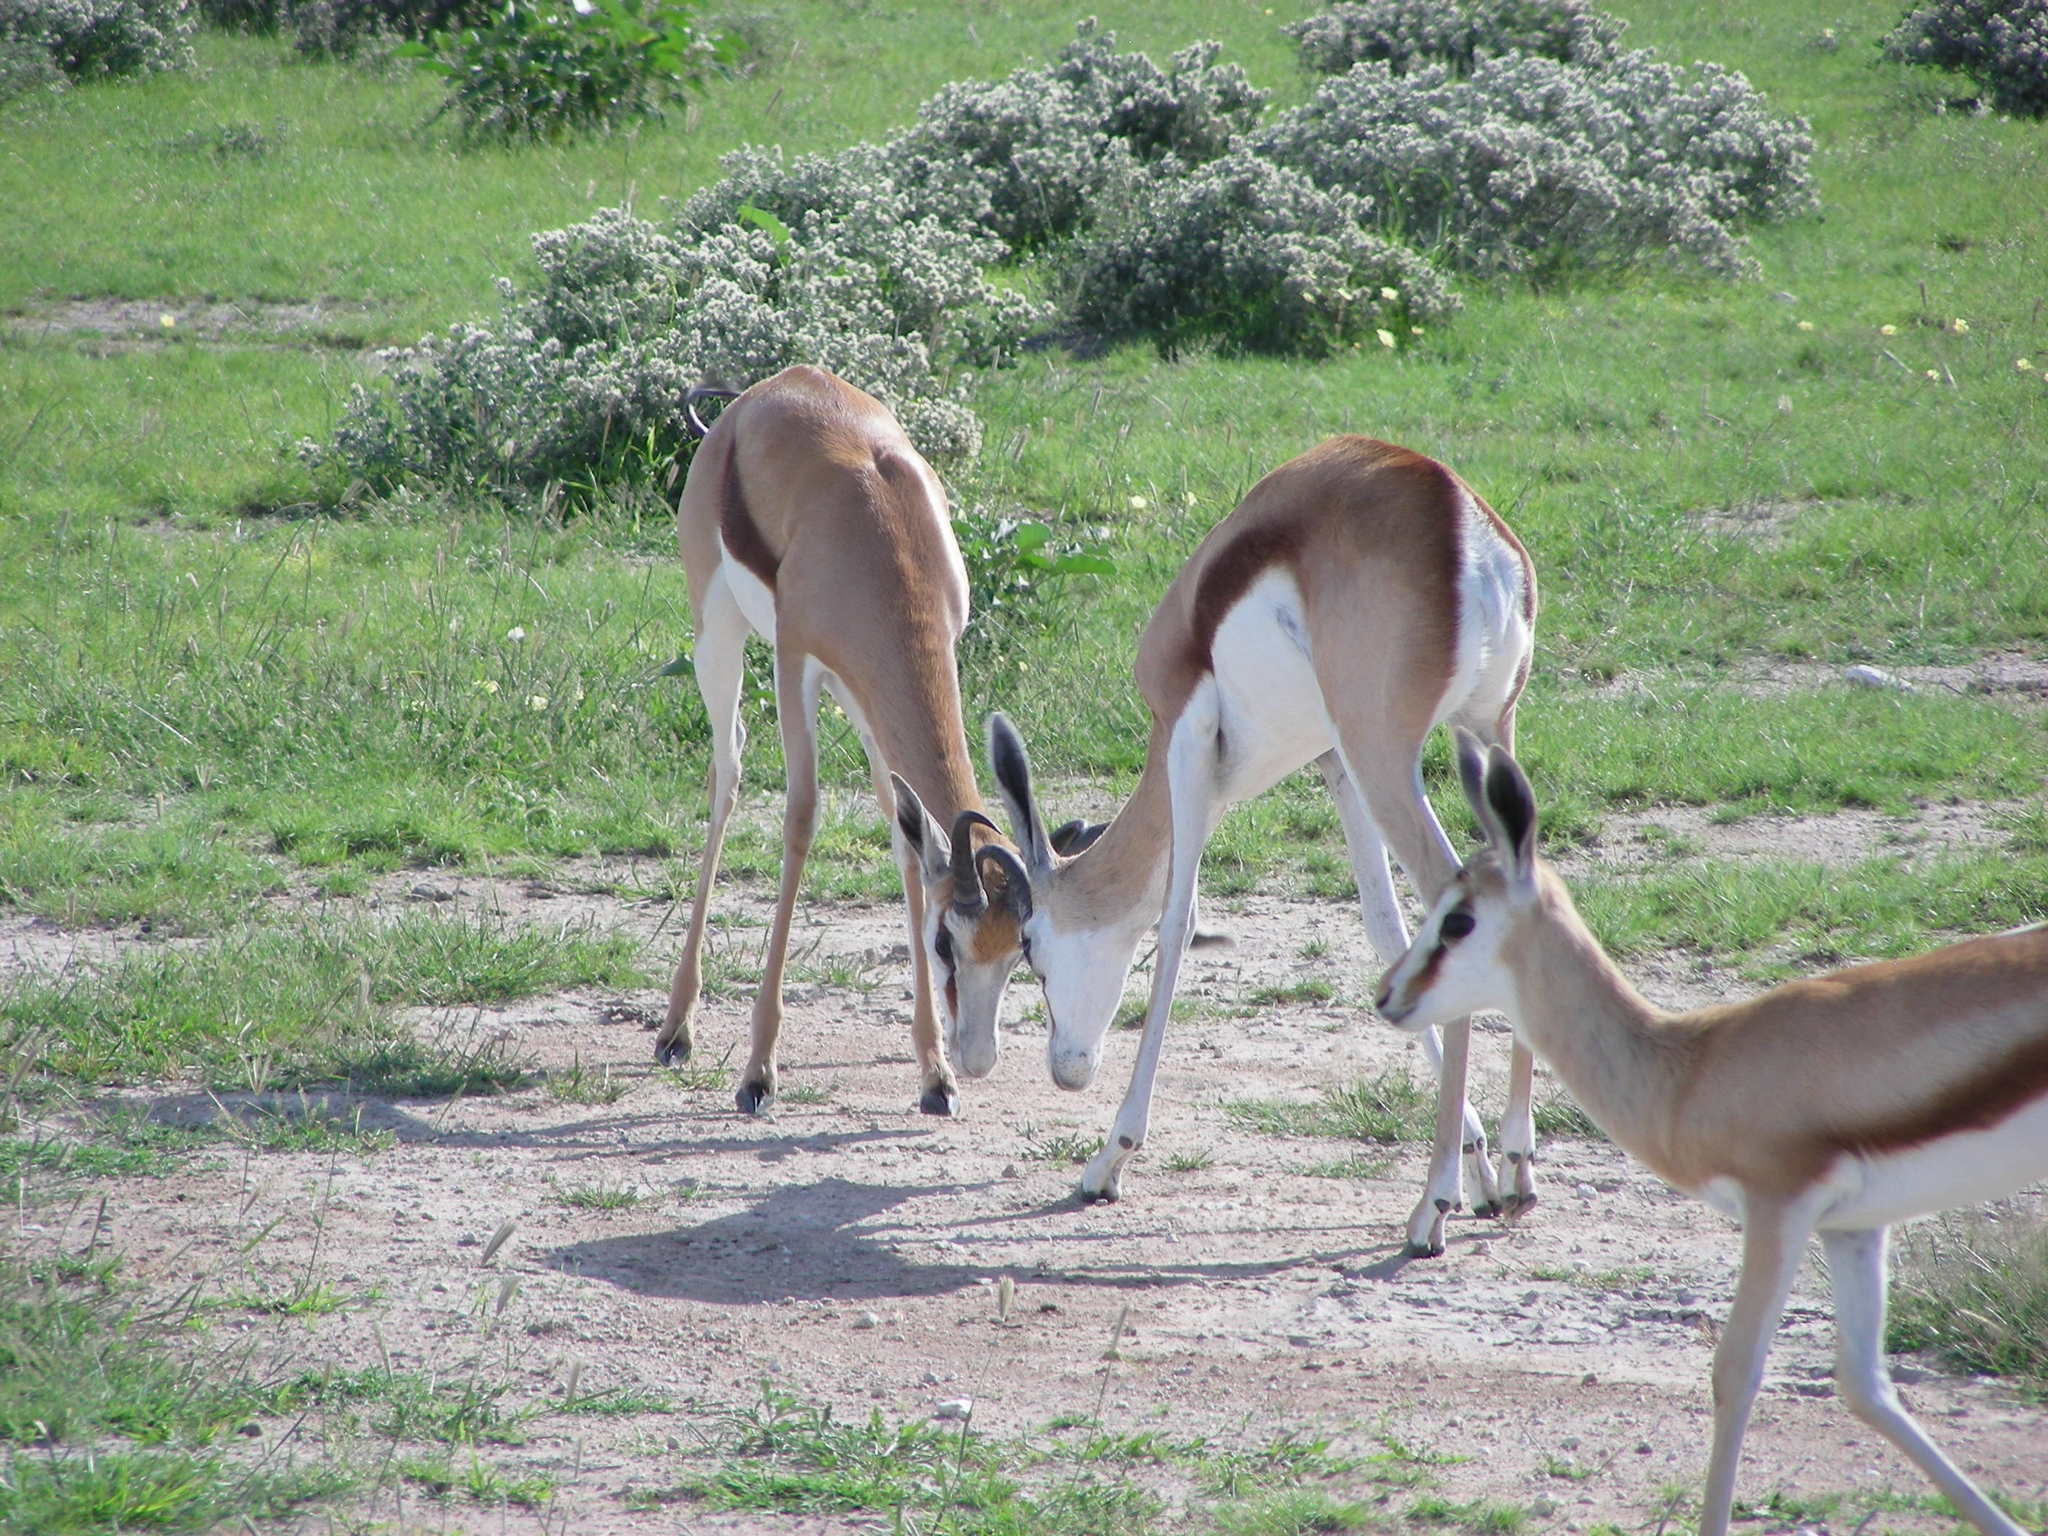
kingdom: Animalia
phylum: Chordata
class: Mammalia
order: Artiodactyla
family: Bovidae
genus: Antidorcas
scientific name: Antidorcas marsupialis
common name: Springbok
